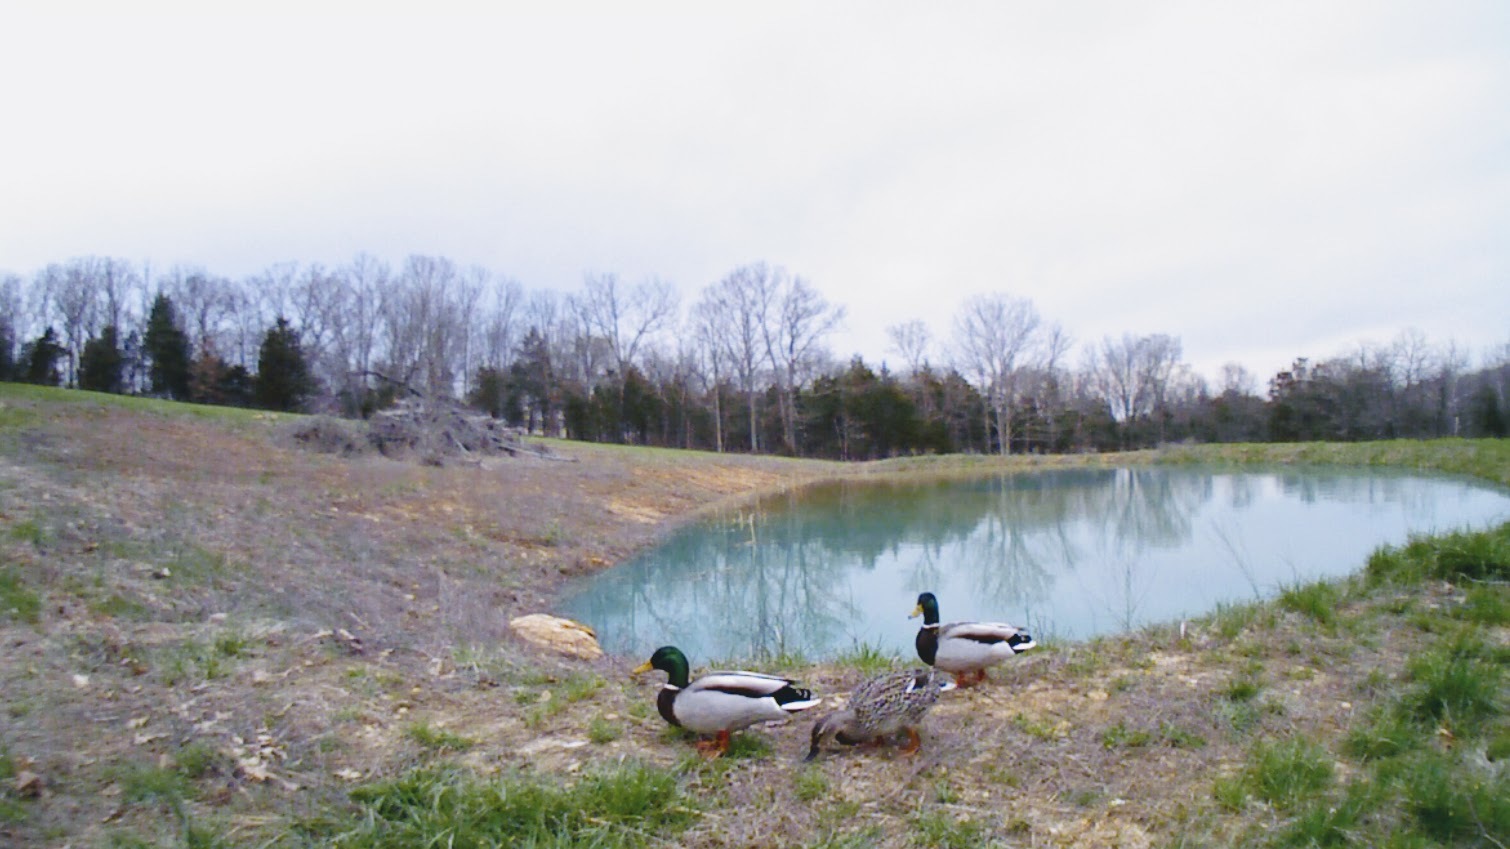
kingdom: Animalia
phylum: Chordata
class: Aves
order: Anseriformes
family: Anatidae
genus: Anas
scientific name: Anas platyrhynchos
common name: Mallard
